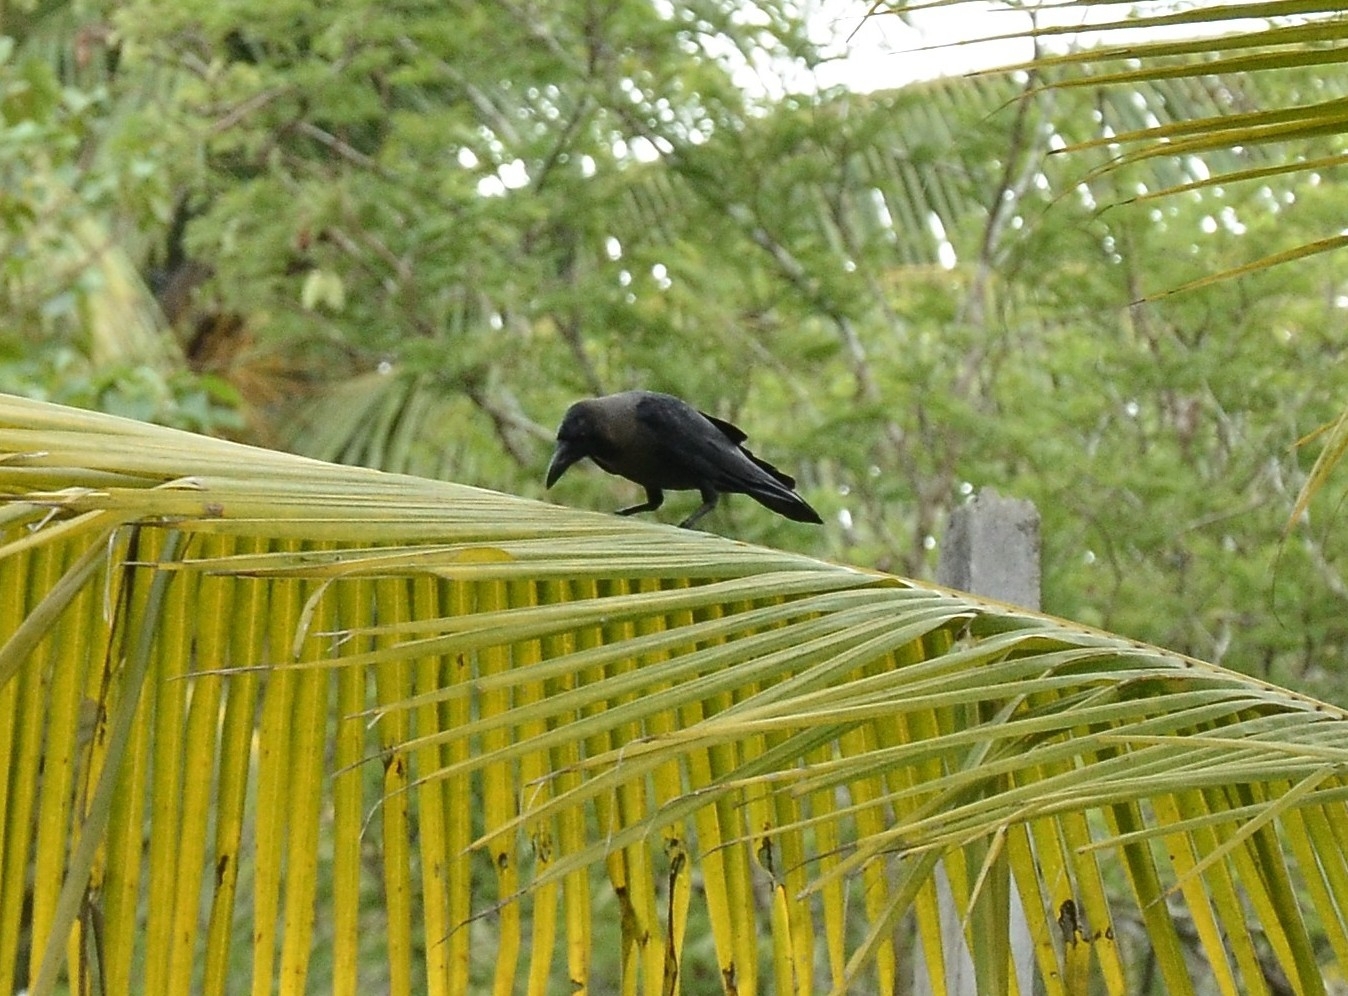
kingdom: Animalia
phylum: Chordata
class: Aves
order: Passeriformes
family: Corvidae
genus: Corvus
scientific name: Corvus splendens
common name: House crow
